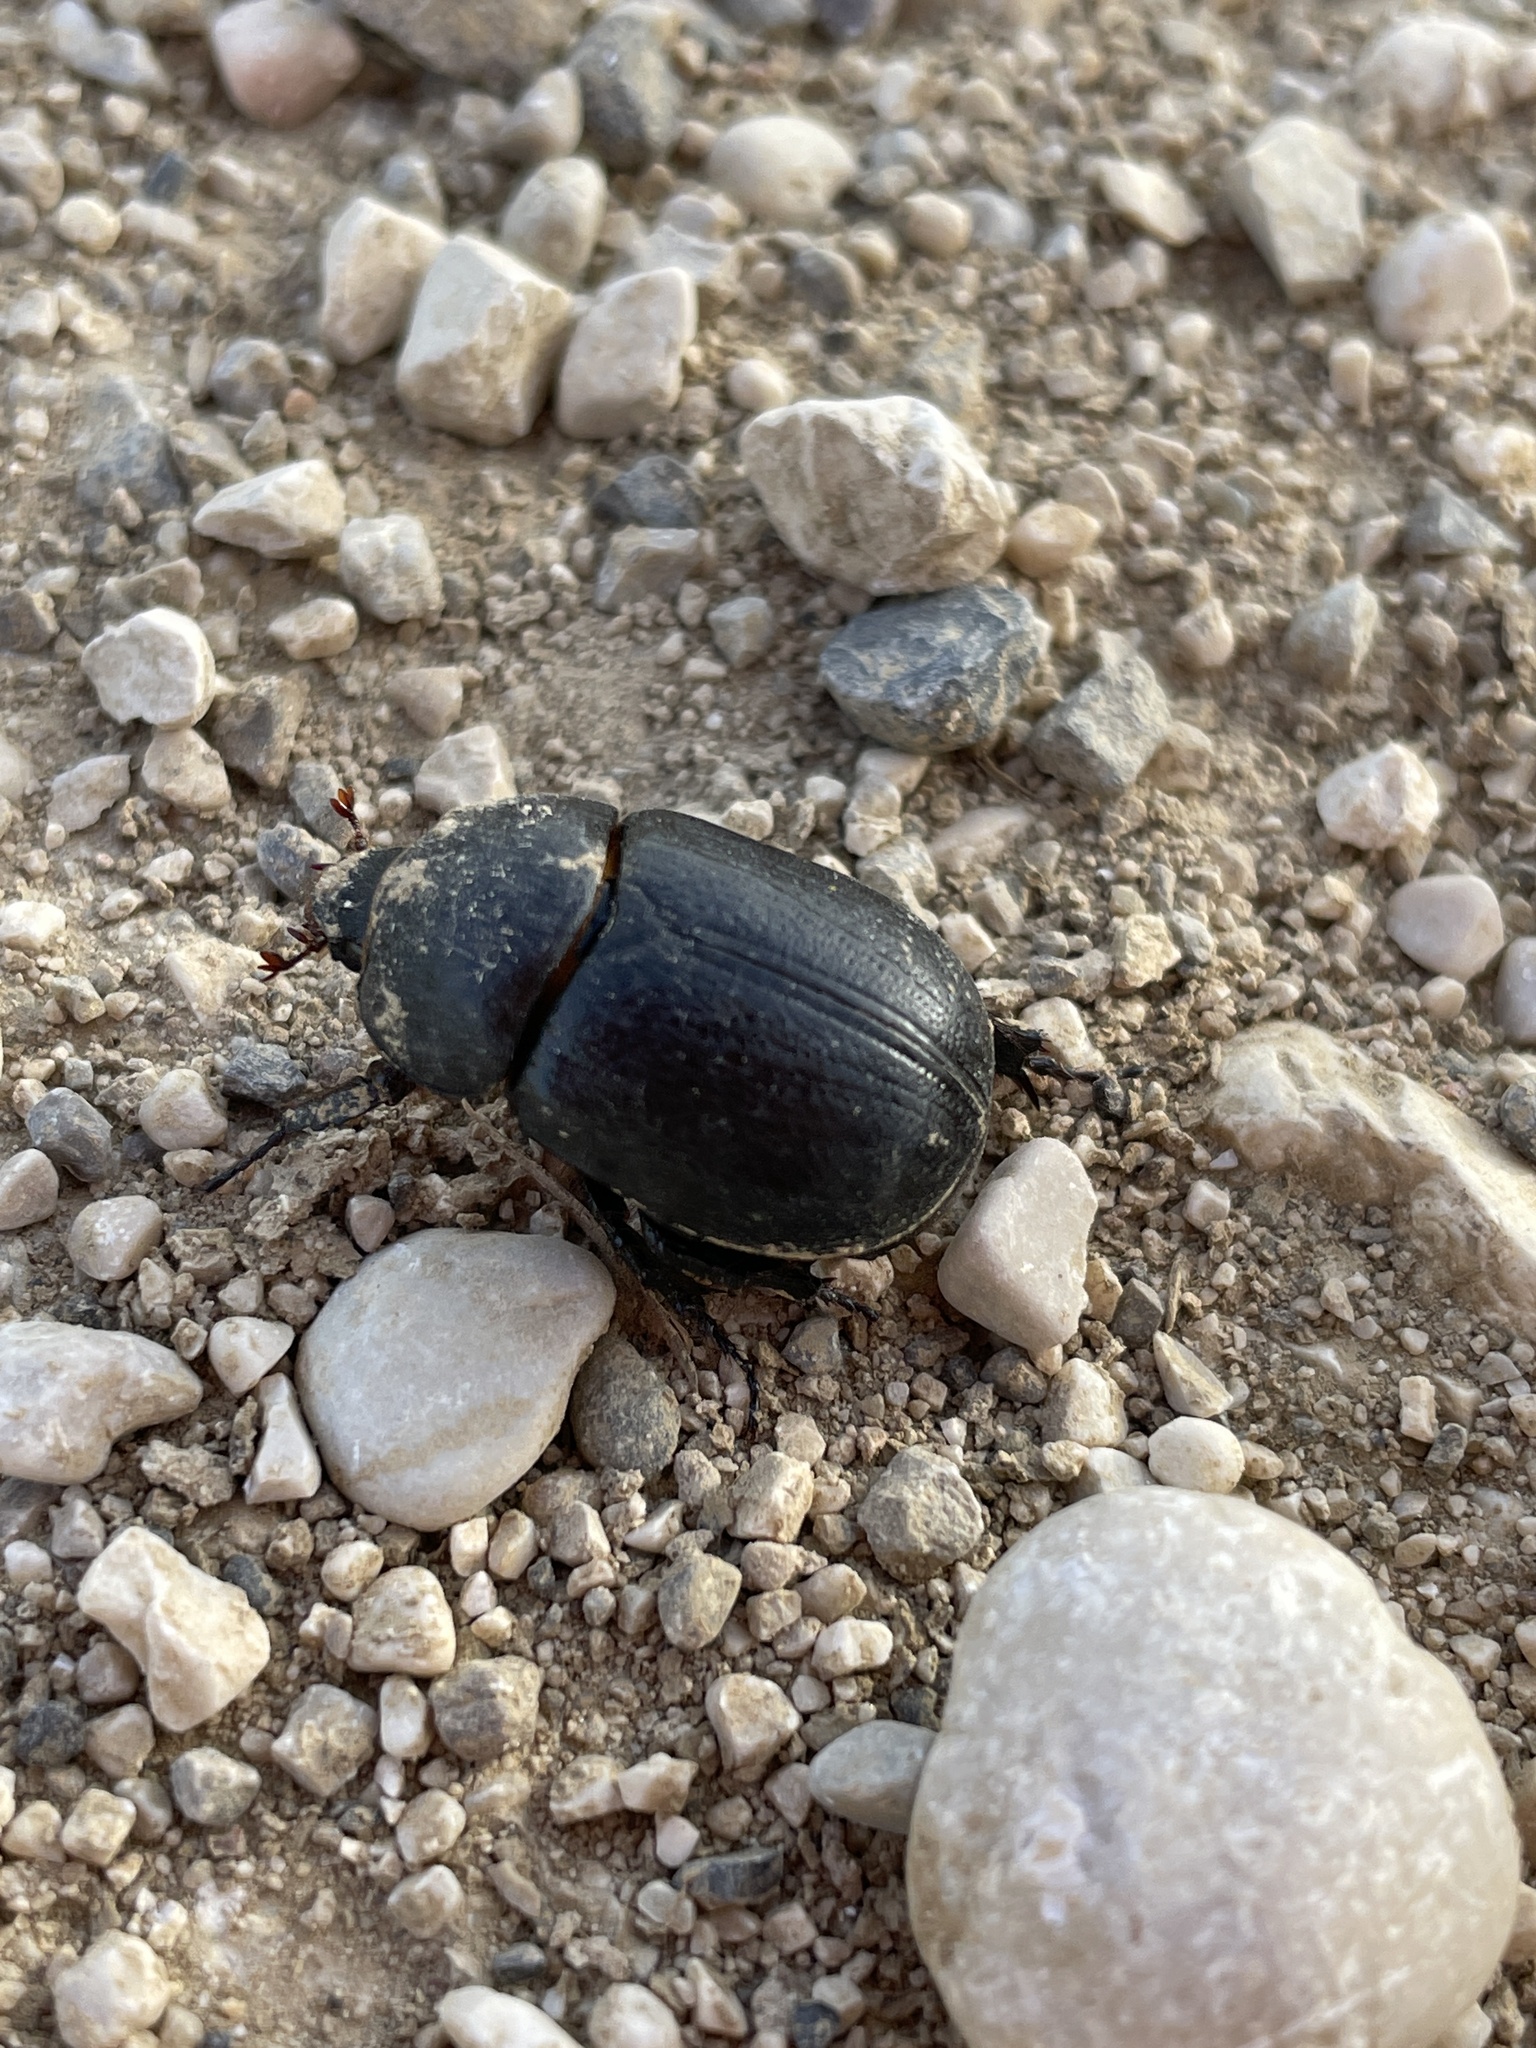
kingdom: Animalia
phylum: Arthropoda
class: Insecta
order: Coleoptera
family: Scarabaeidae
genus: Pentodon
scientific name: Pentodon bidens
